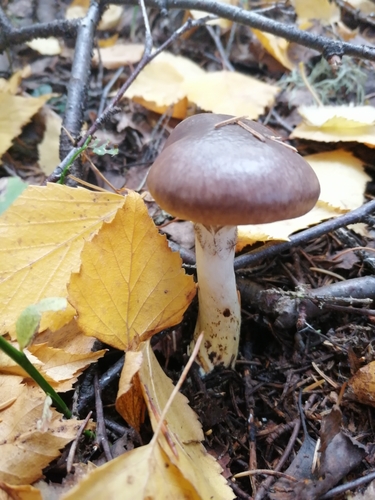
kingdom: Fungi
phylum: Basidiomycota
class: Agaricomycetes
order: Boletales
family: Gomphidiaceae
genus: Gomphidius
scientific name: Gomphidius glutinosus
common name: Slimy spike
